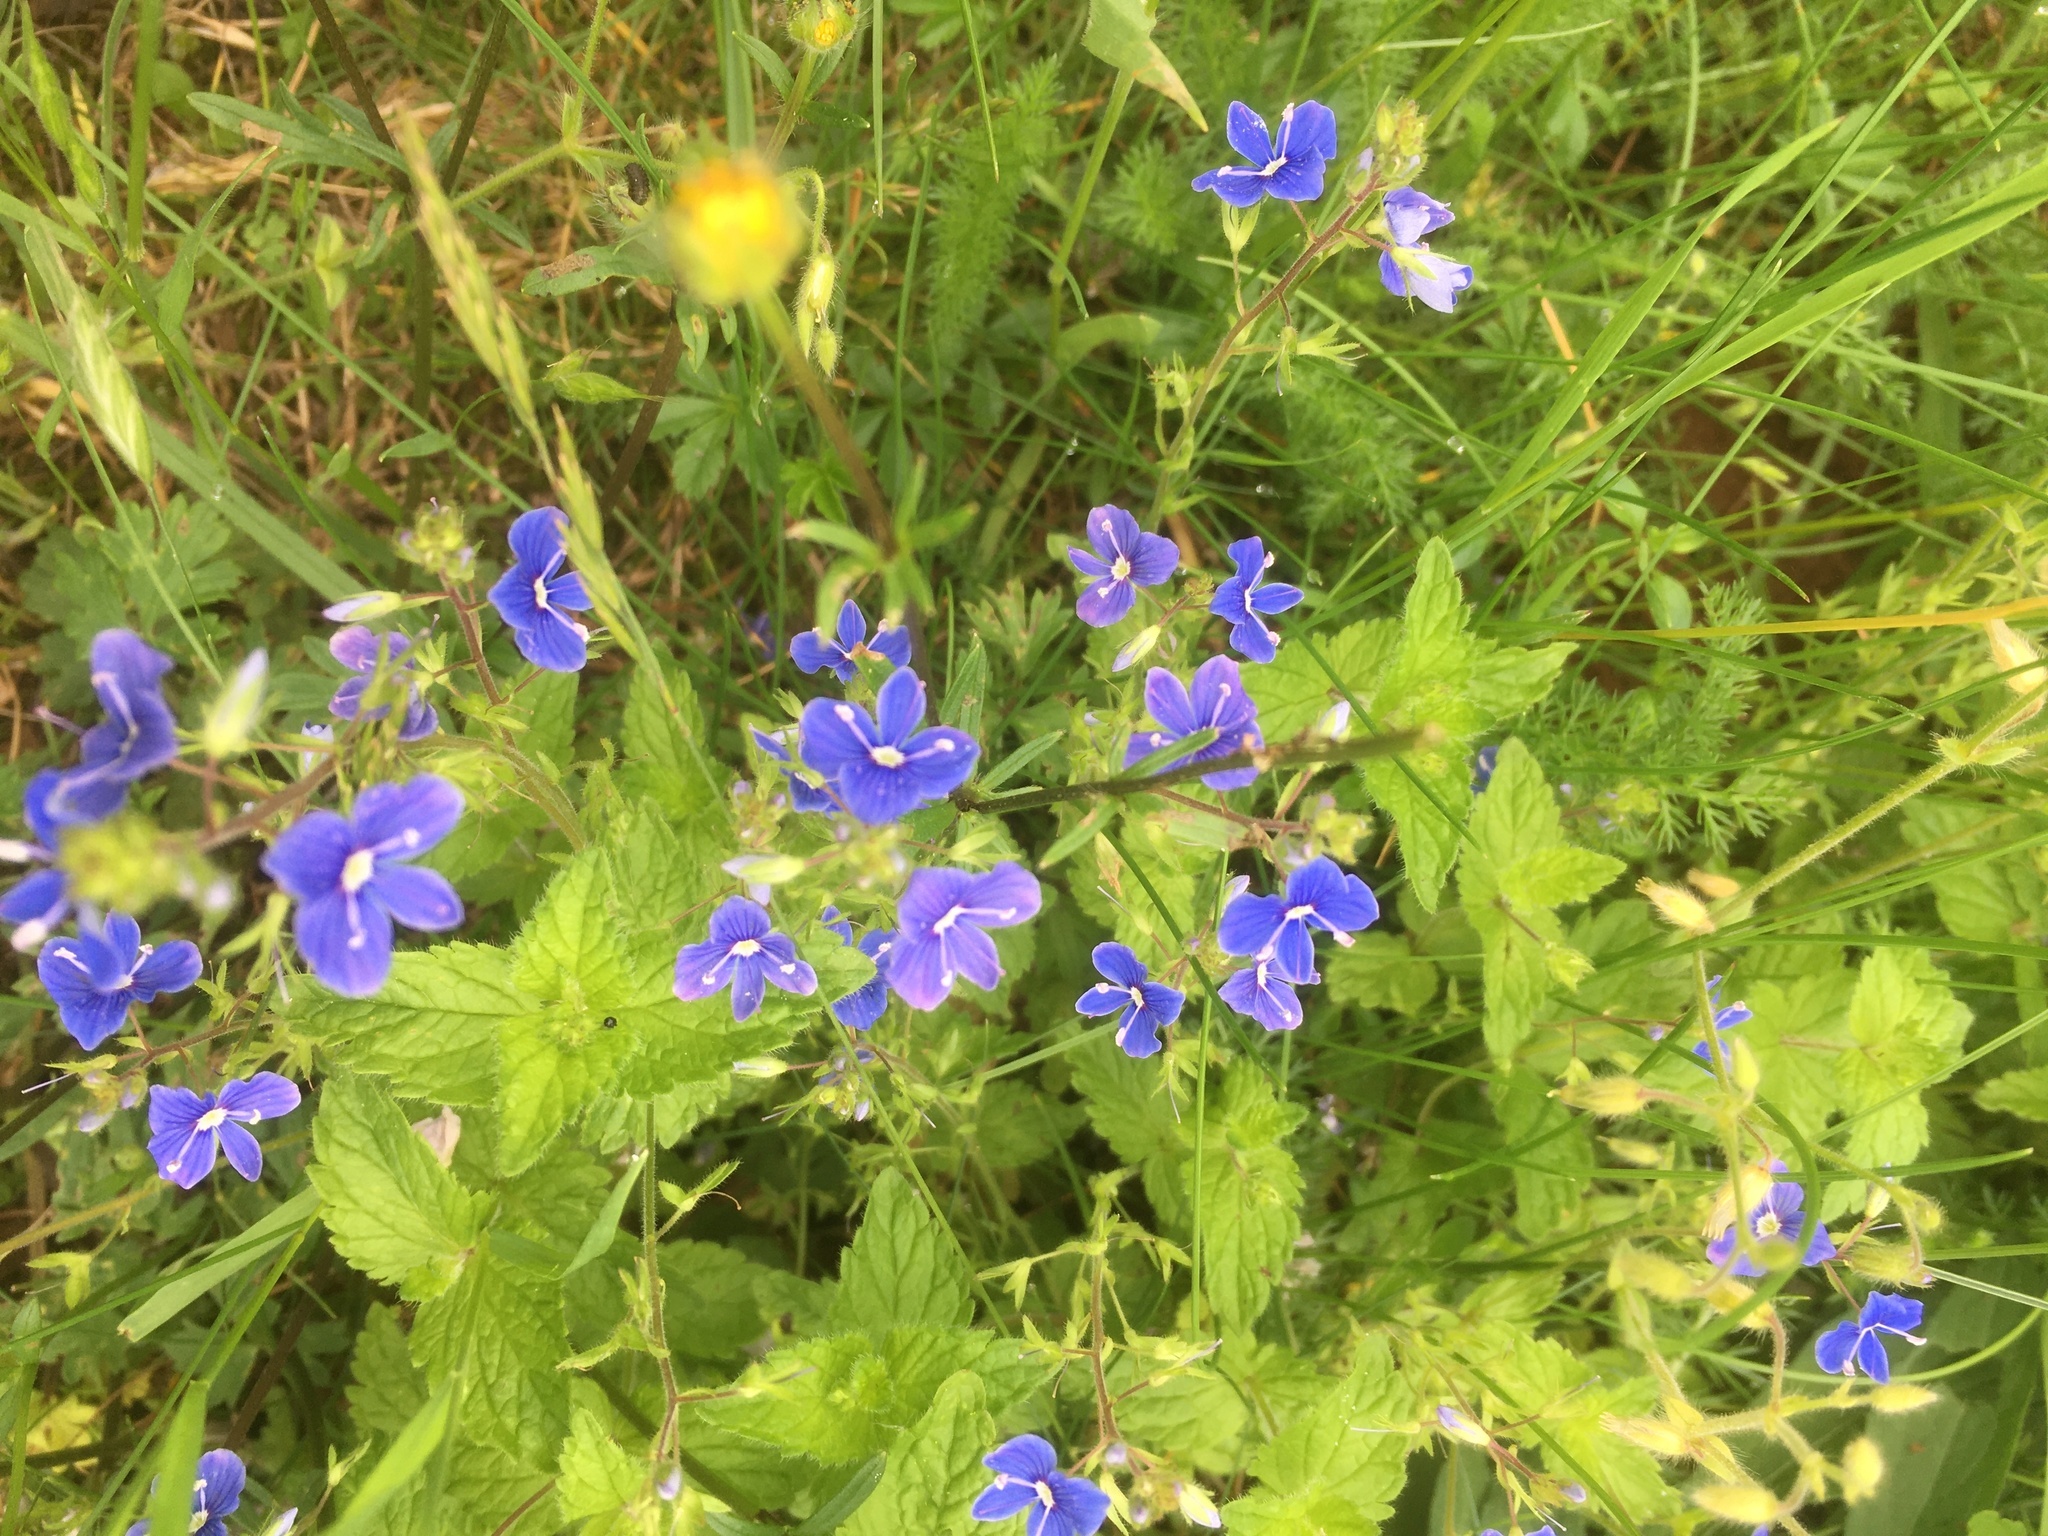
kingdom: Plantae
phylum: Tracheophyta
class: Magnoliopsida
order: Lamiales
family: Plantaginaceae
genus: Veronica
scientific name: Veronica chamaedrys
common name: Germander speedwell
